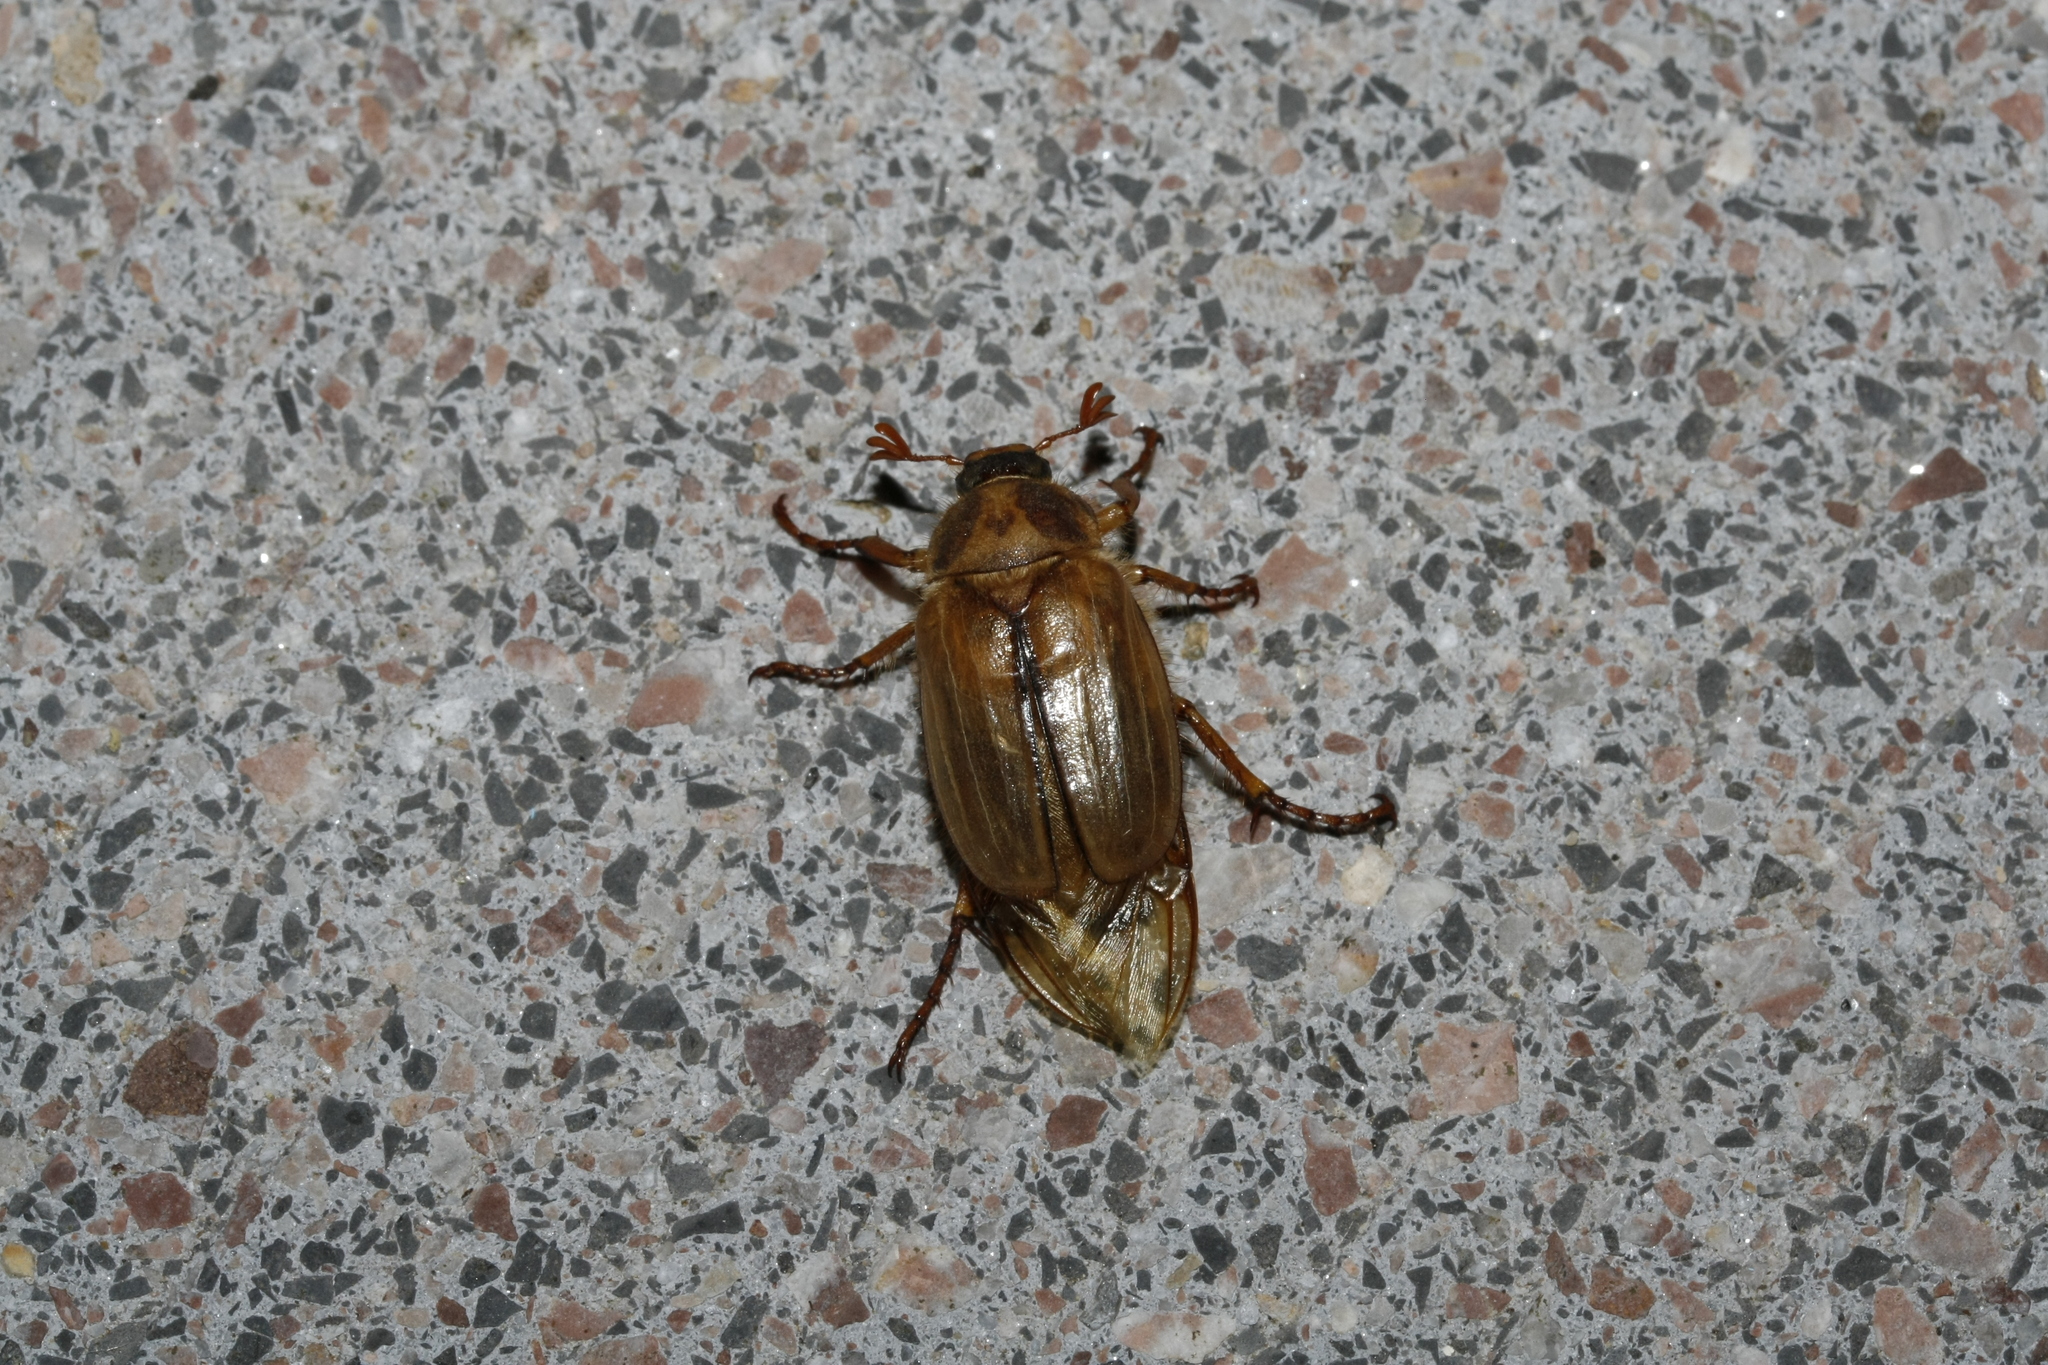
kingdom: Animalia
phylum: Arthropoda
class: Insecta
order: Coleoptera
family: Scarabaeidae
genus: Amphimallon
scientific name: Amphimallon solstitiale
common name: Summer chafer
